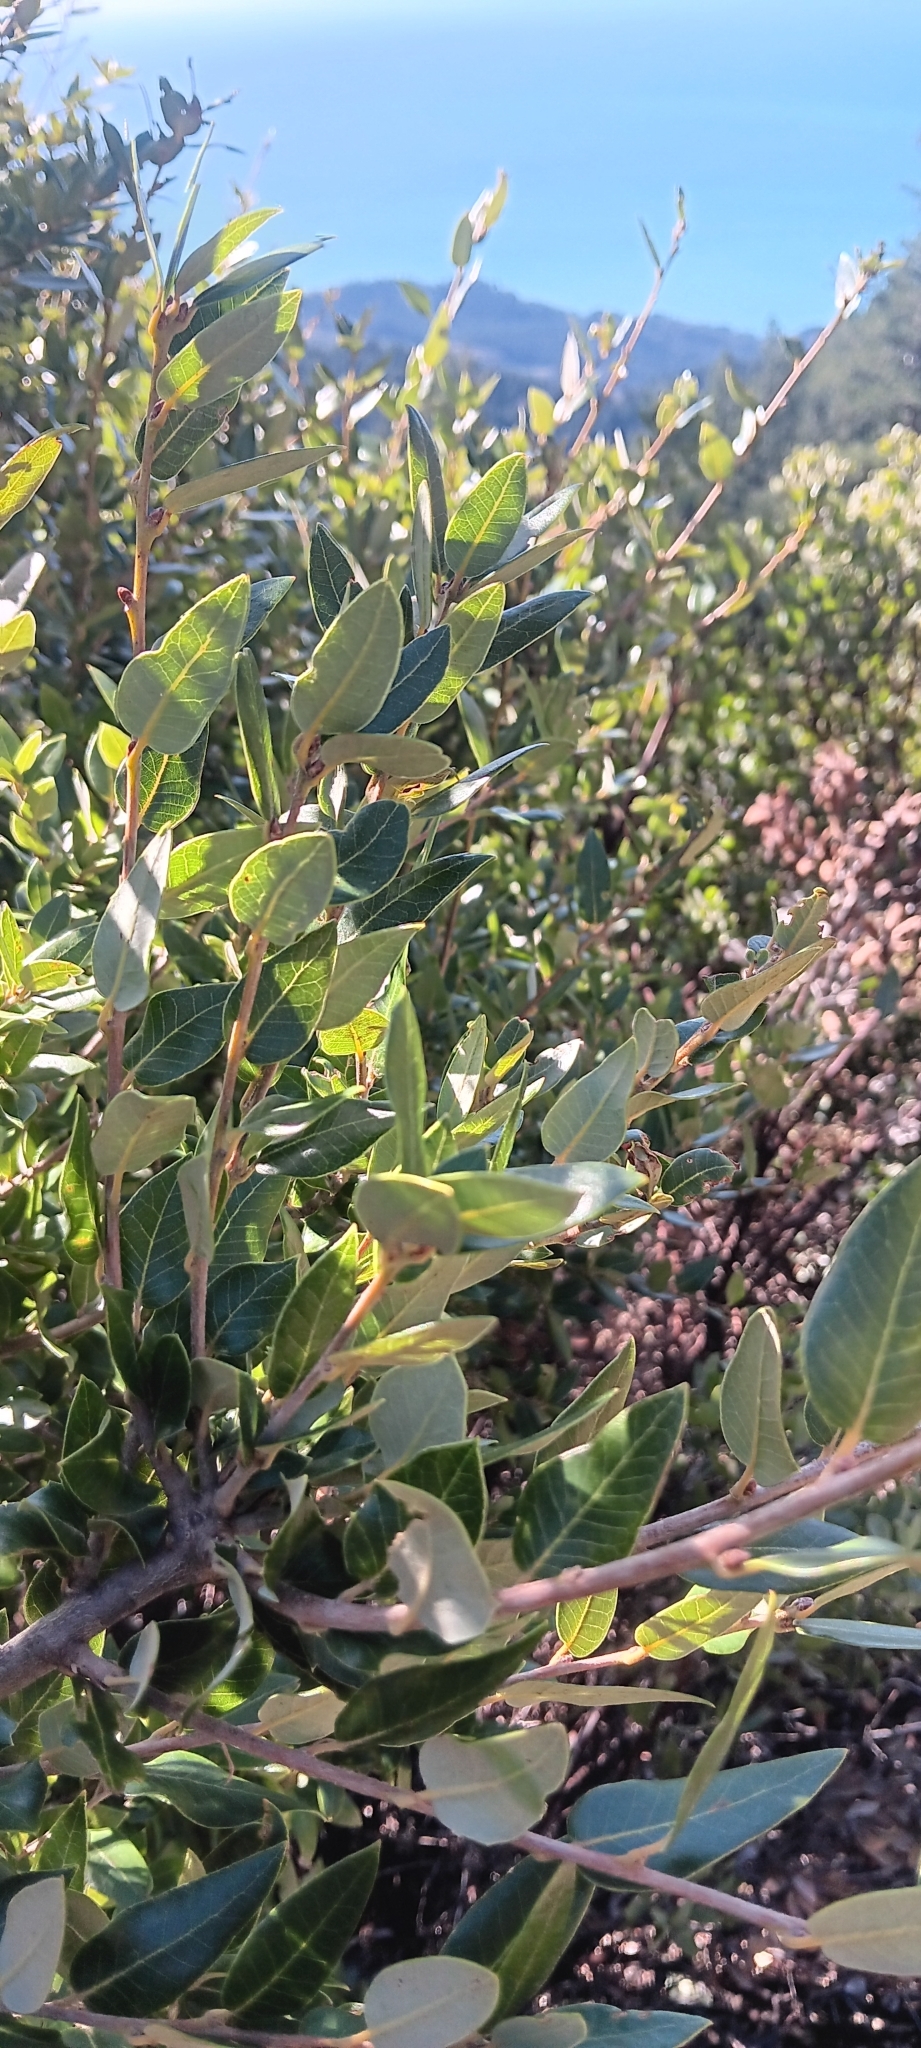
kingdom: Plantae
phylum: Tracheophyta
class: Magnoliopsida
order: Fagales
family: Fagaceae
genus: Quercus
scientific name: Quercus chrysolepis
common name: Canyon live oak
